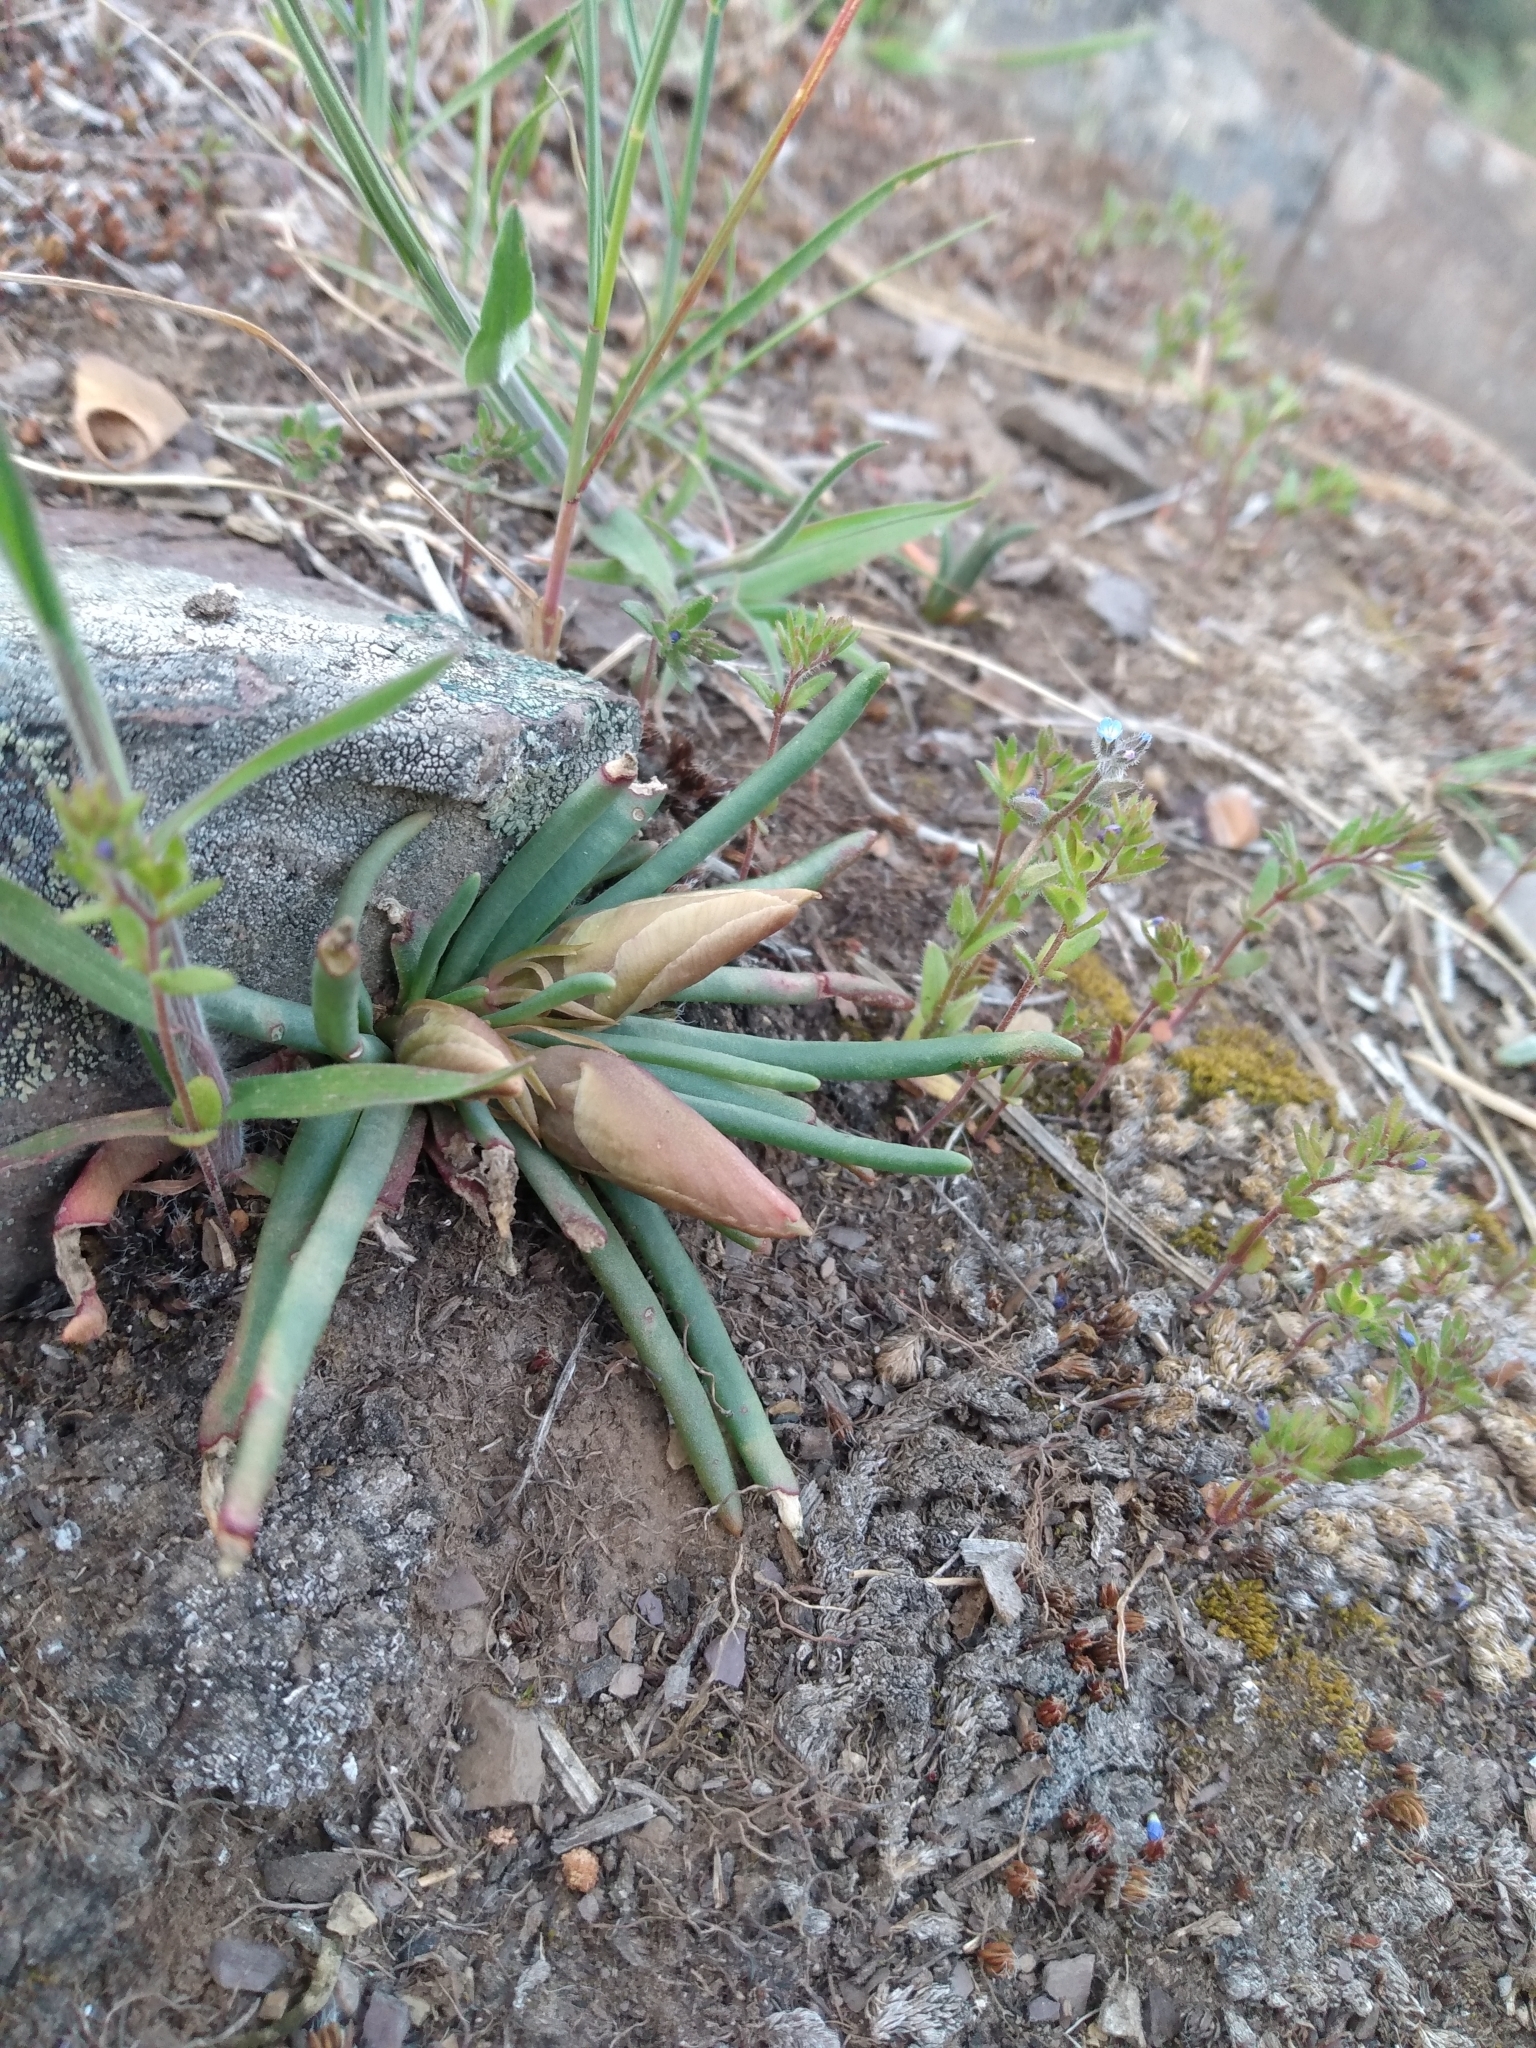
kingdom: Plantae
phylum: Tracheophyta
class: Magnoliopsida
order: Caryophyllales
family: Montiaceae
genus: Lewisia
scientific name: Lewisia rediviva
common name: Bitter-root
